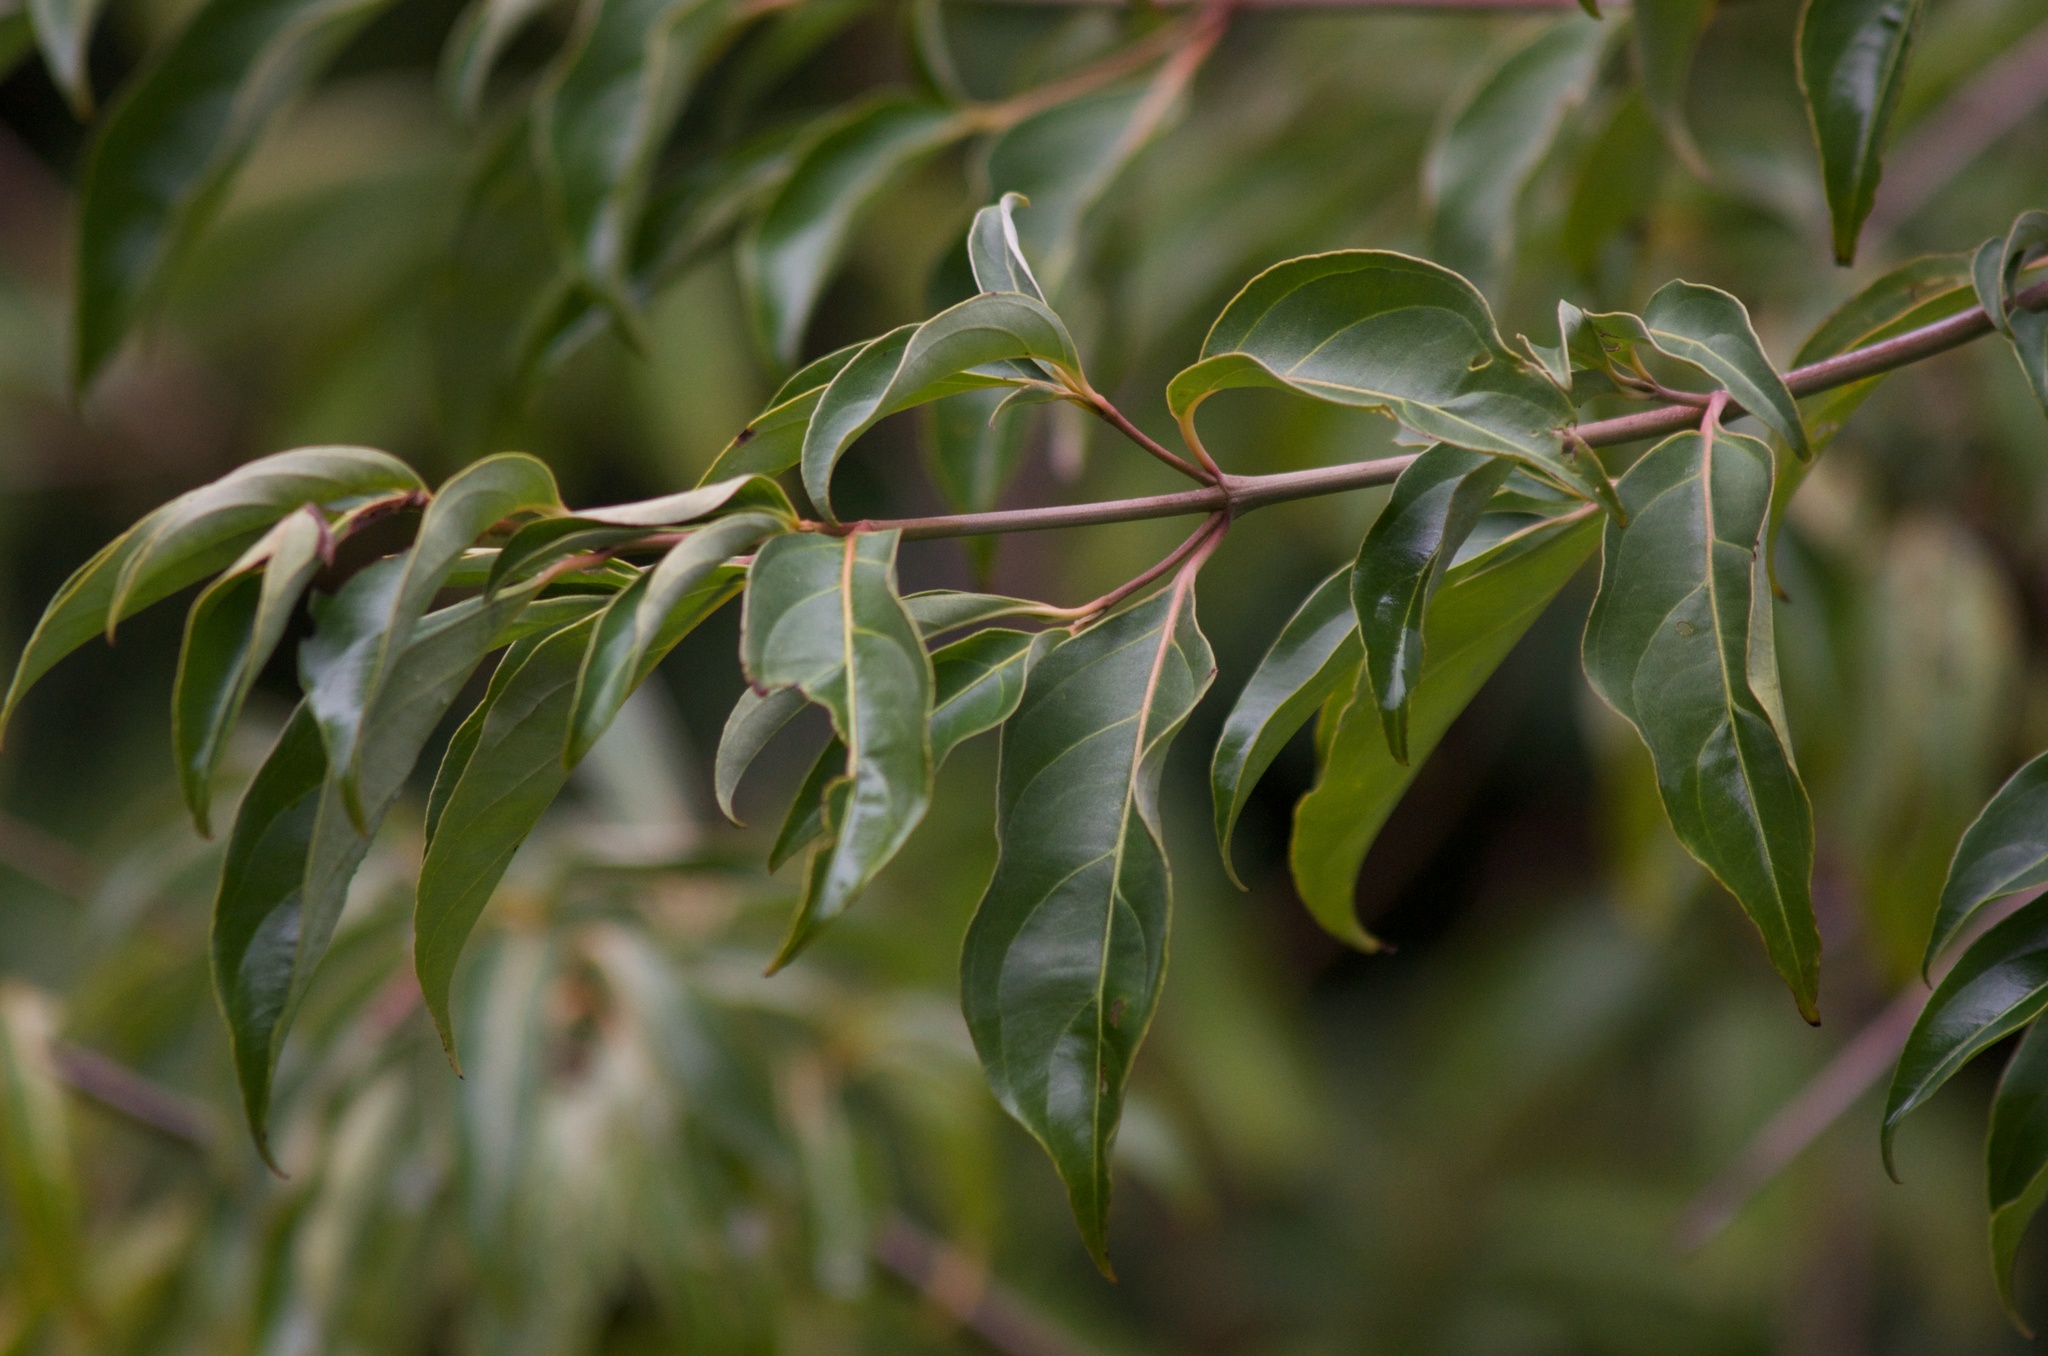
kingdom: Plantae
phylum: Tracheophyta
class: Magnoliopsida
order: Cornales
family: Cornaceae
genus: Cornus
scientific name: Cornus capitata
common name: Bentham's cornel
